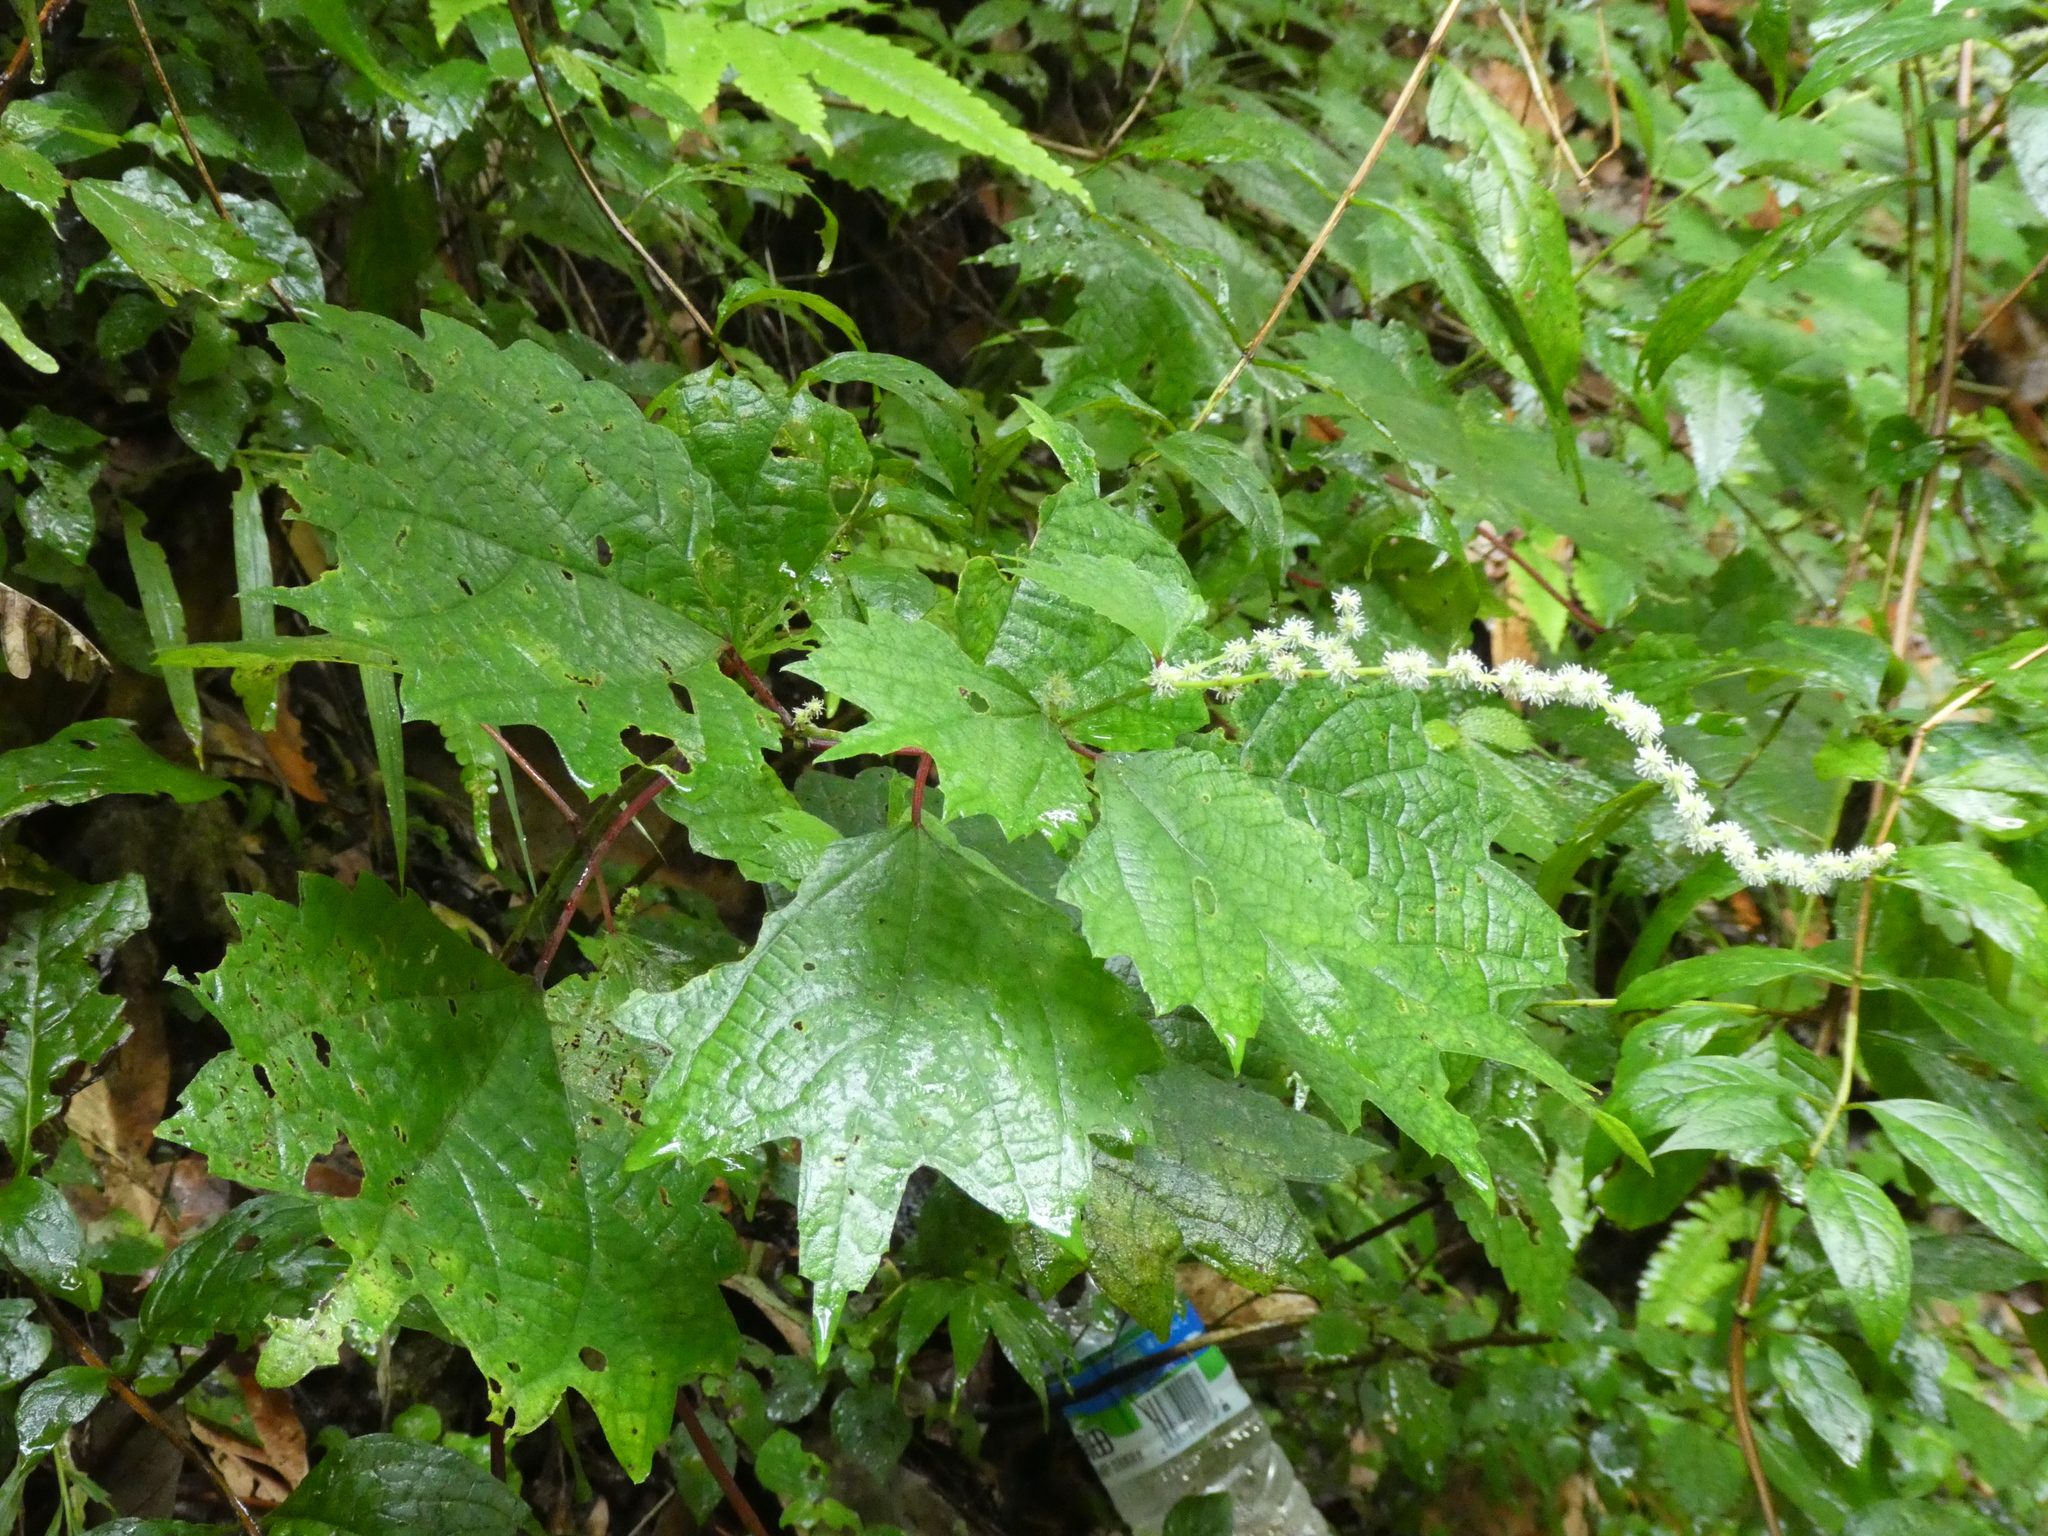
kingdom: Plantae
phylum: Tracheophyta
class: Magnoliopsida
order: Rosales
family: Urticaceae
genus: Boehmeria
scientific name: Boehmeria japonica
